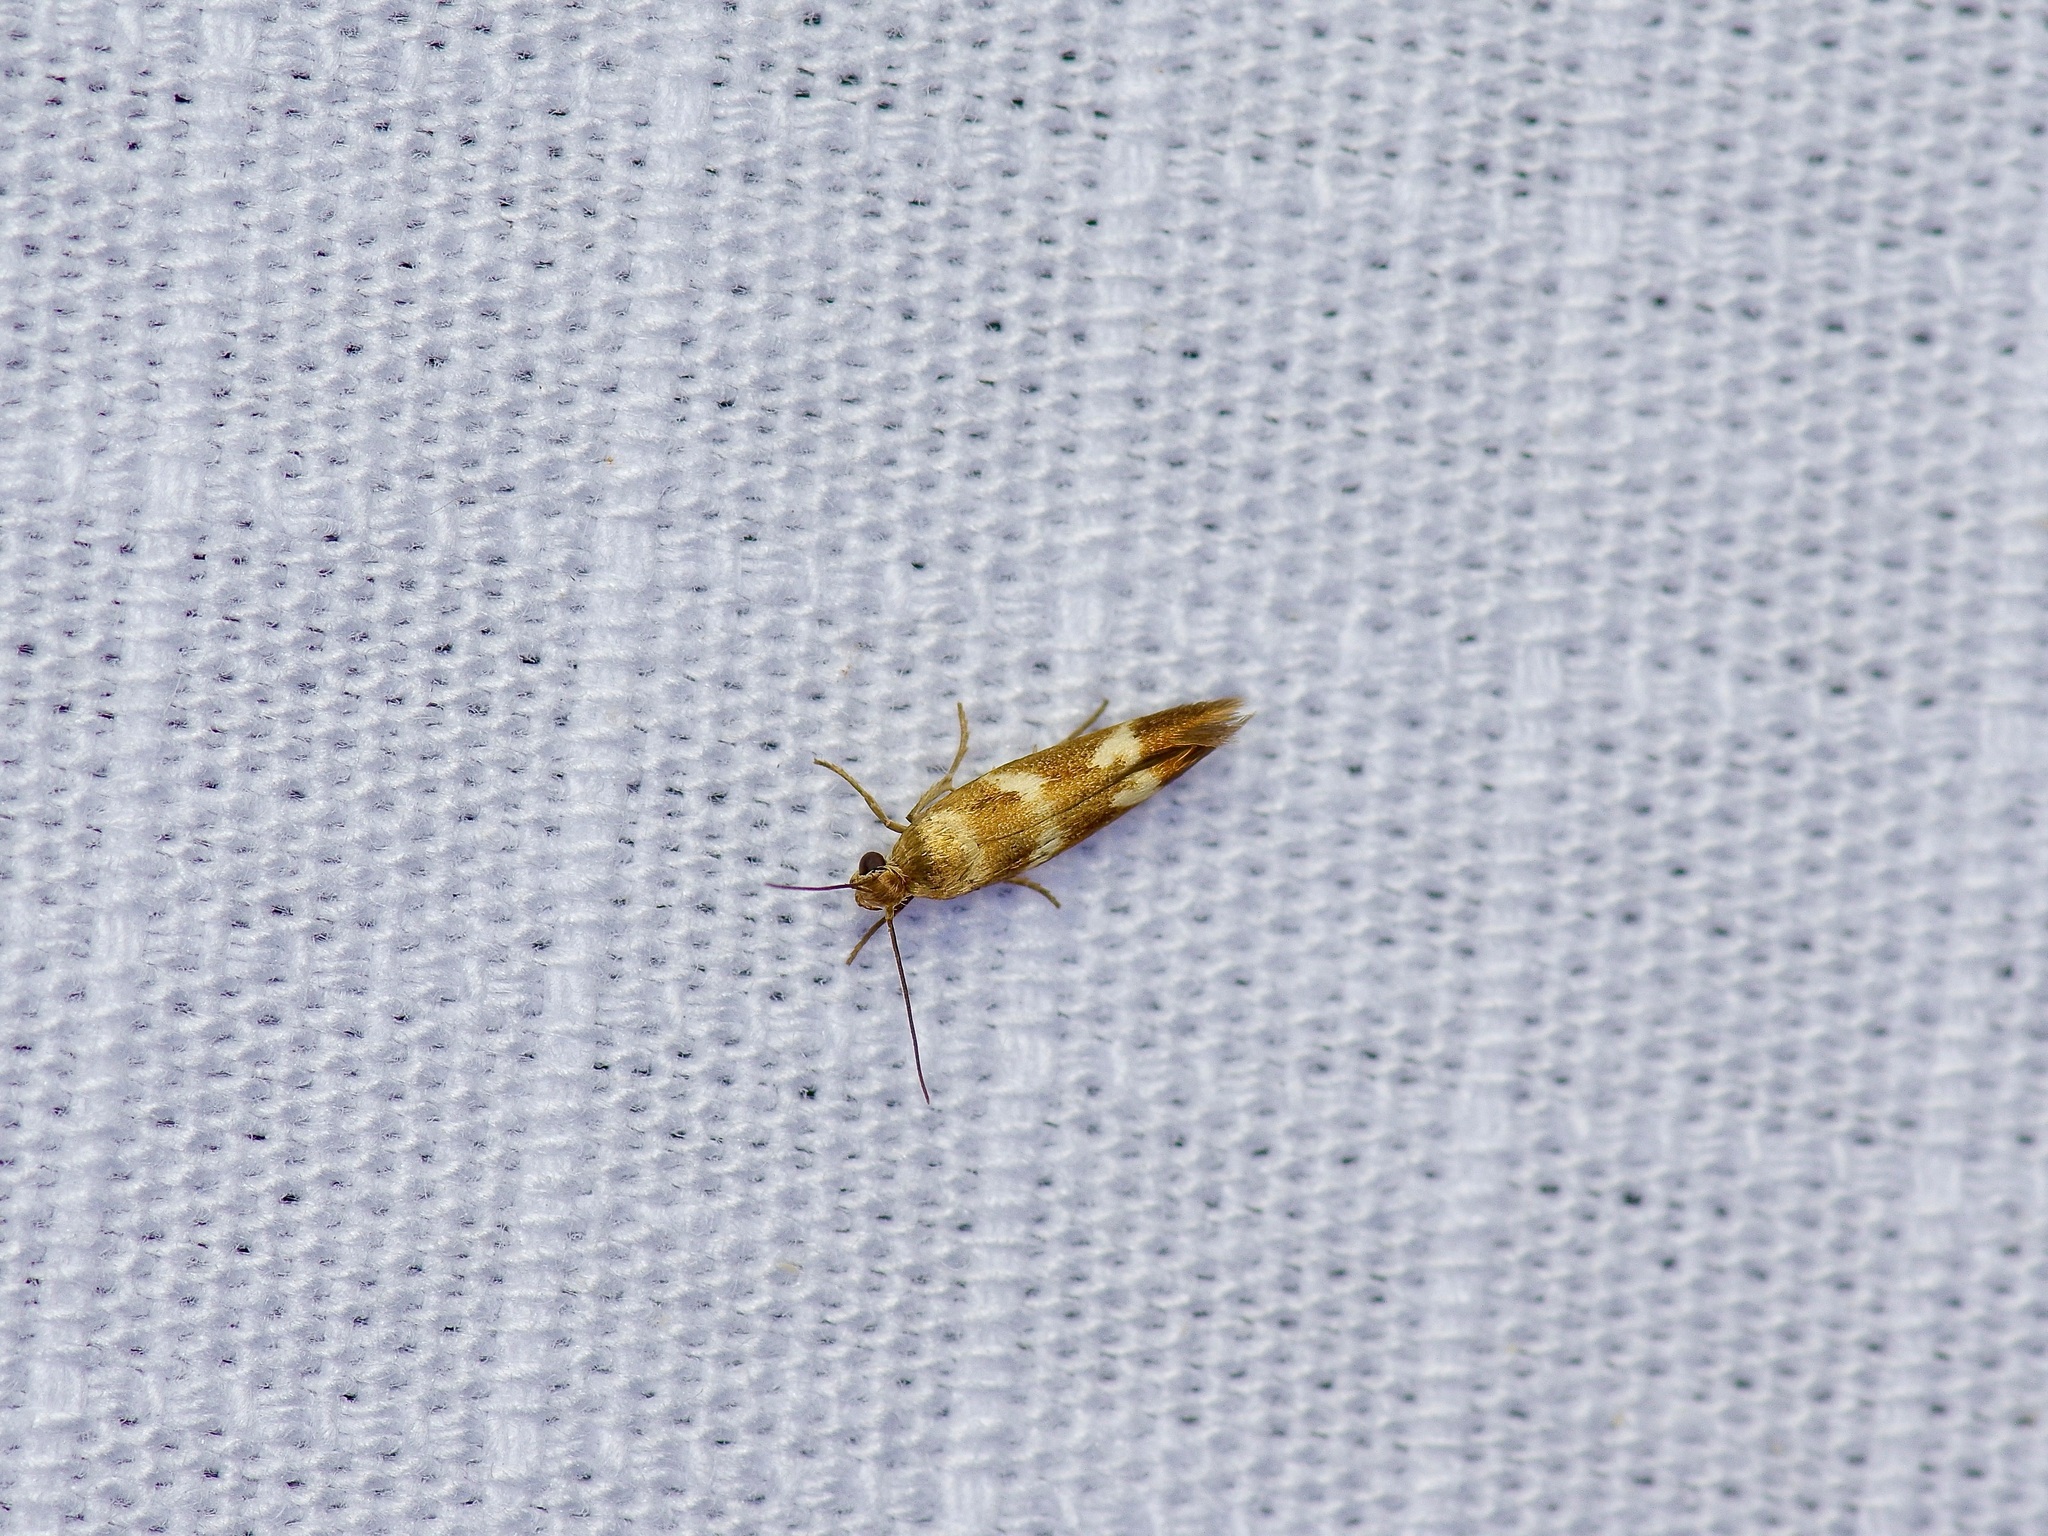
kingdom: Animalia
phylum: Arthropoda
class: Insecta
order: Lepidoptera
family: Scythrididae
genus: Scythris
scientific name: Scythris trivinctella
